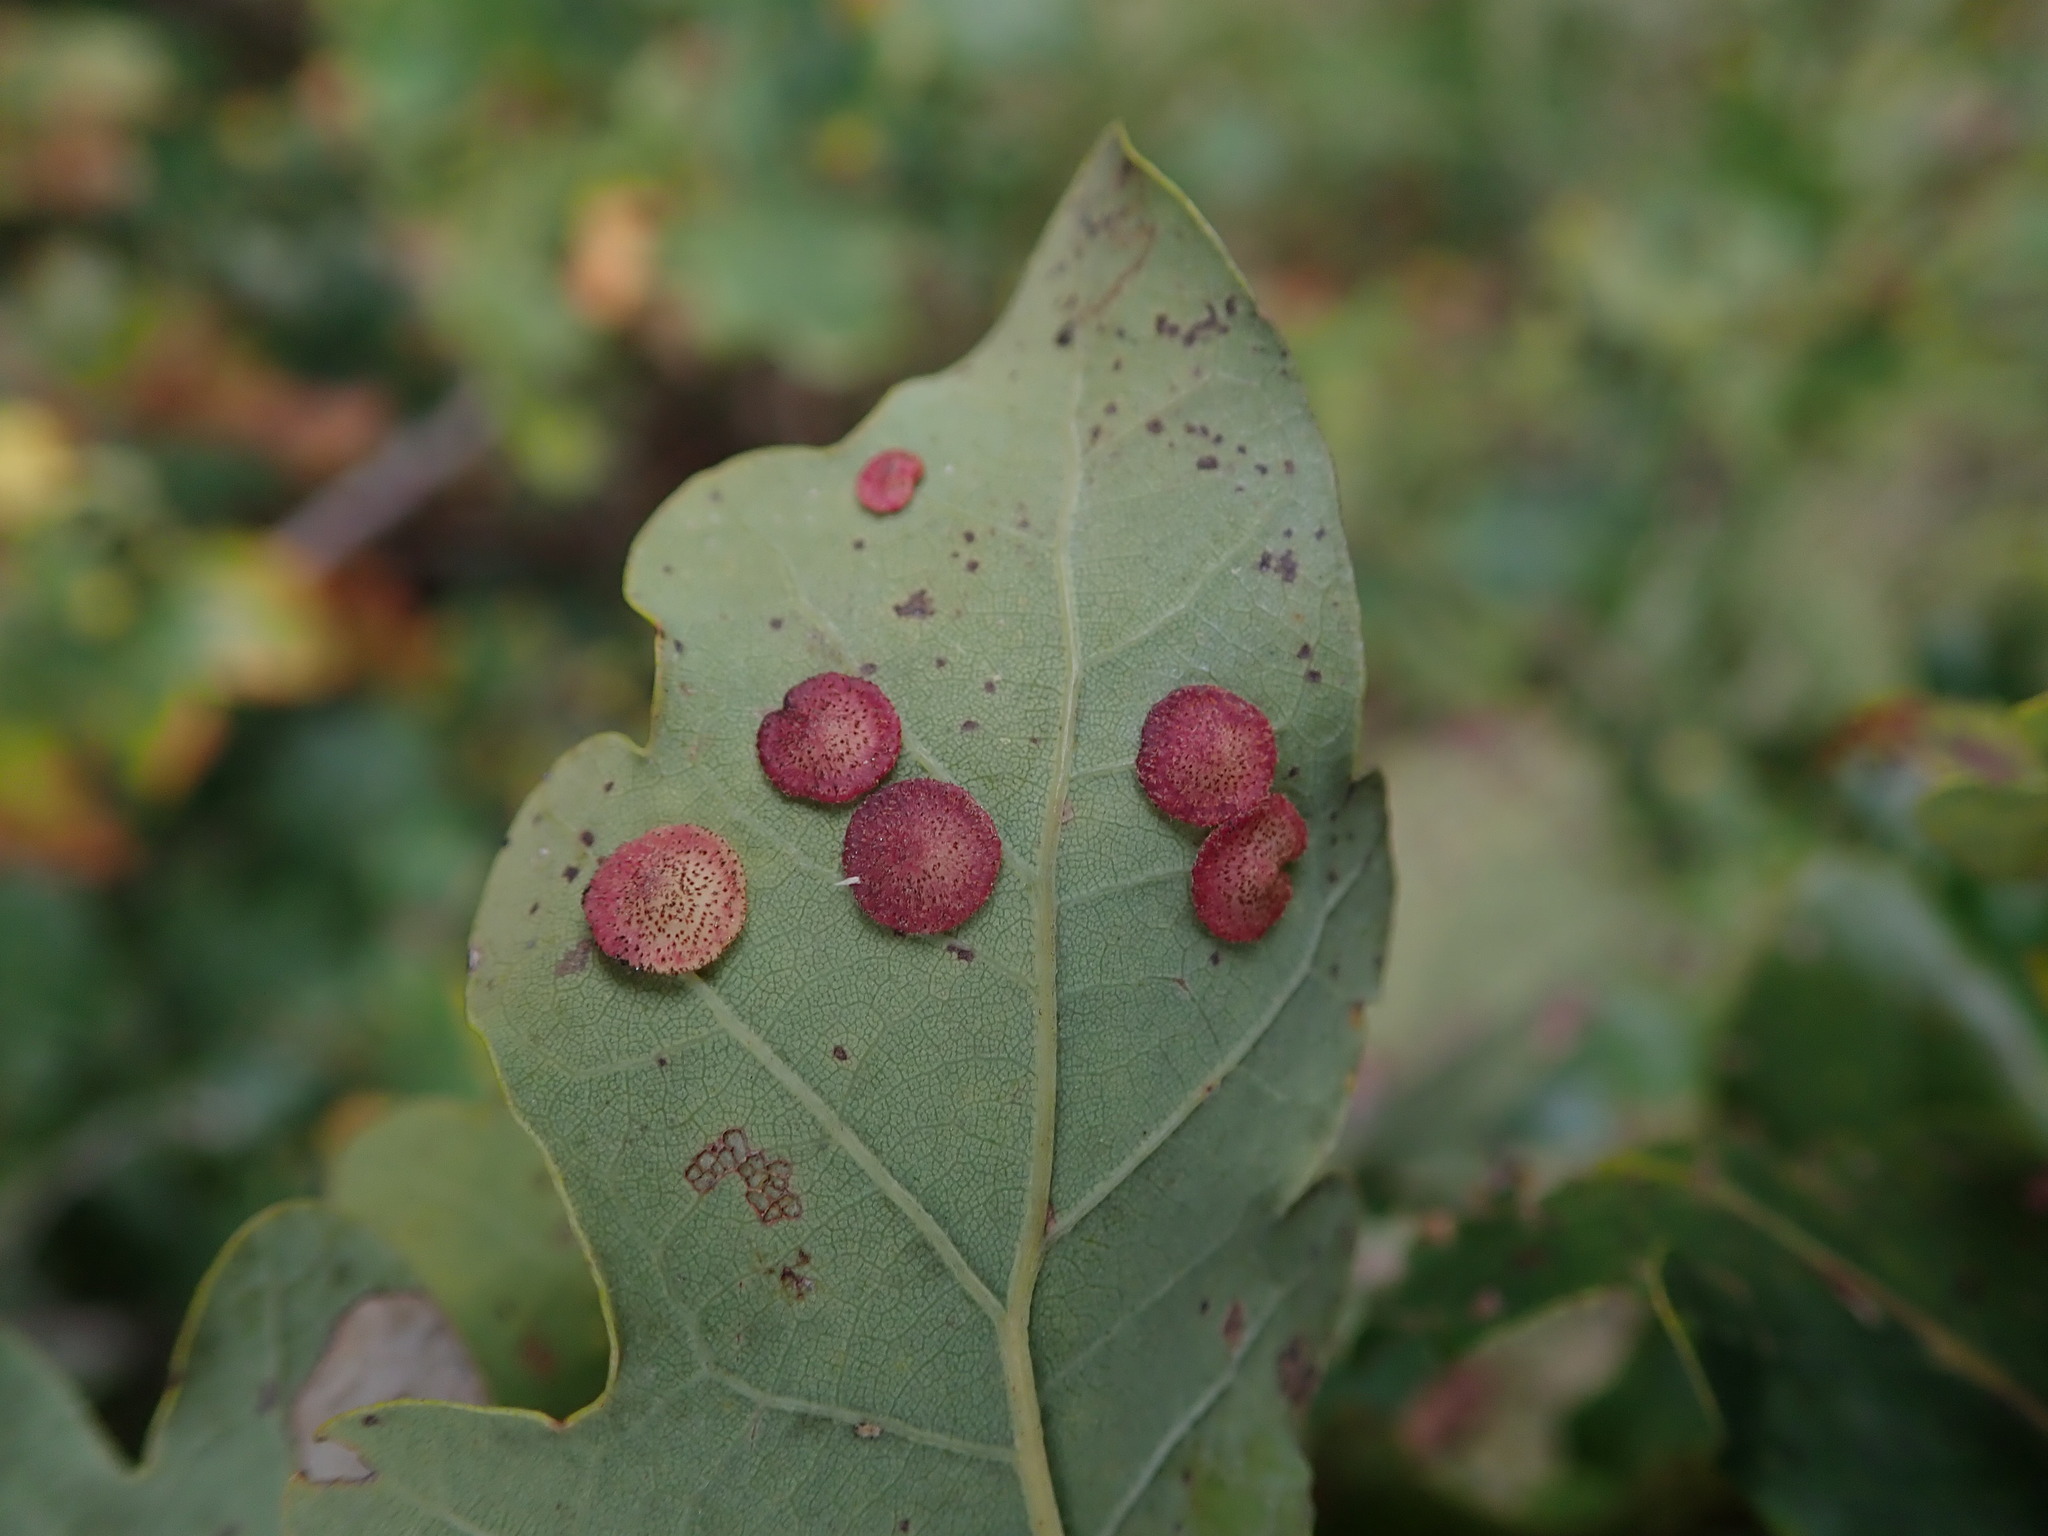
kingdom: Animalia
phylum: Arthropoda
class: Insecta
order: Hymenoptera
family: Cynipidae
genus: Neuroterus
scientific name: Neuroterus quercusbaccarum
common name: Common spangle gall
